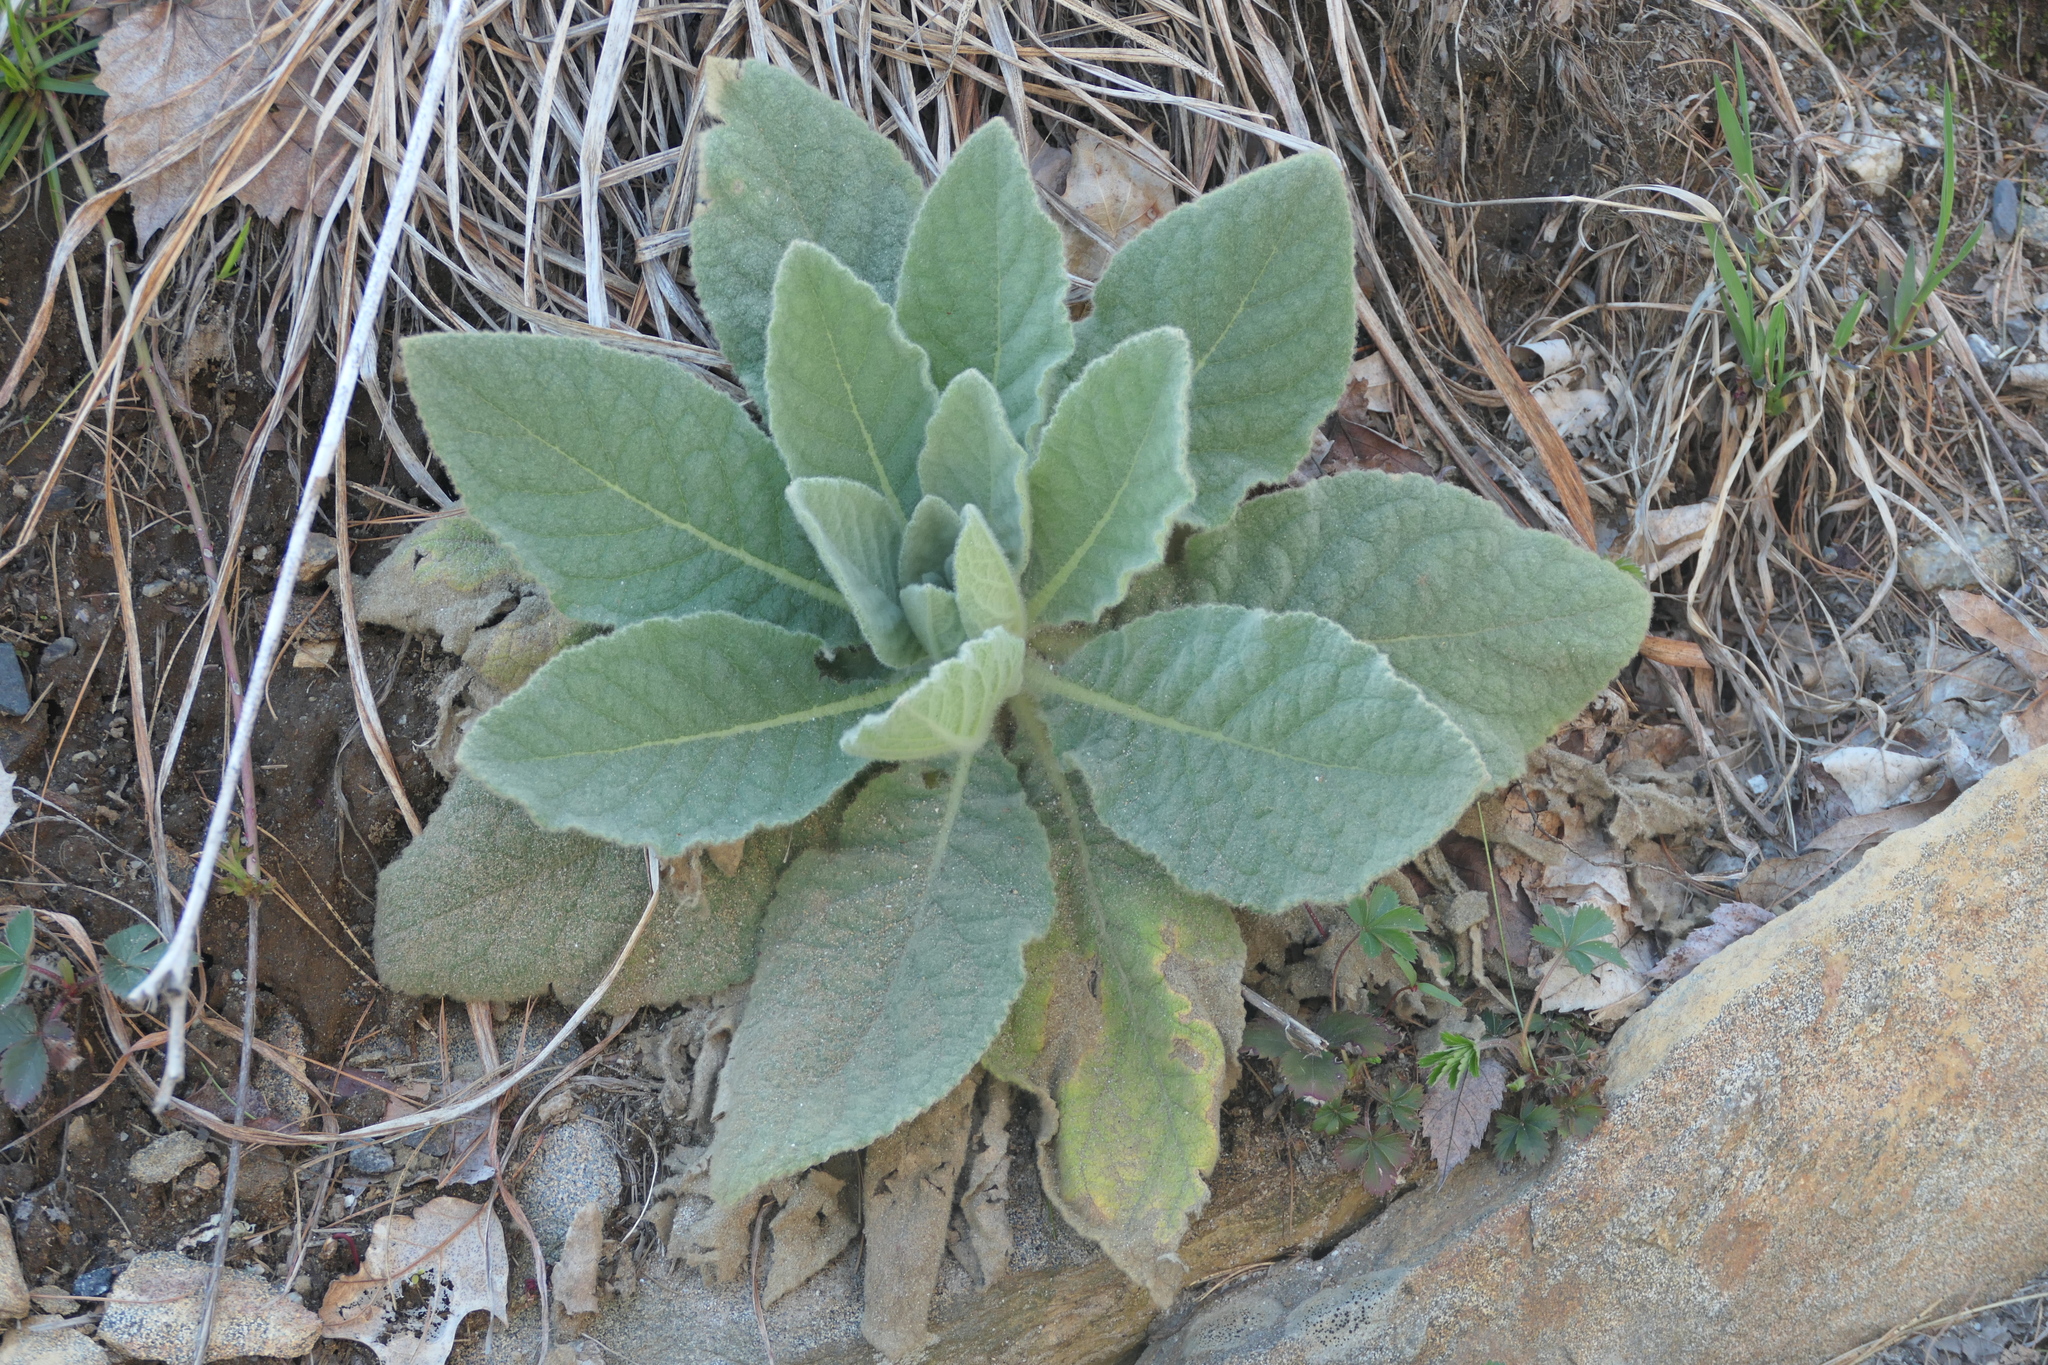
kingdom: Plantae
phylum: Tracheophyta
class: Magnoliopsida
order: Lamiales
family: Scrophulariaceae
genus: Verbascum
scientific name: Verbascum thapsus
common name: Common mullein
